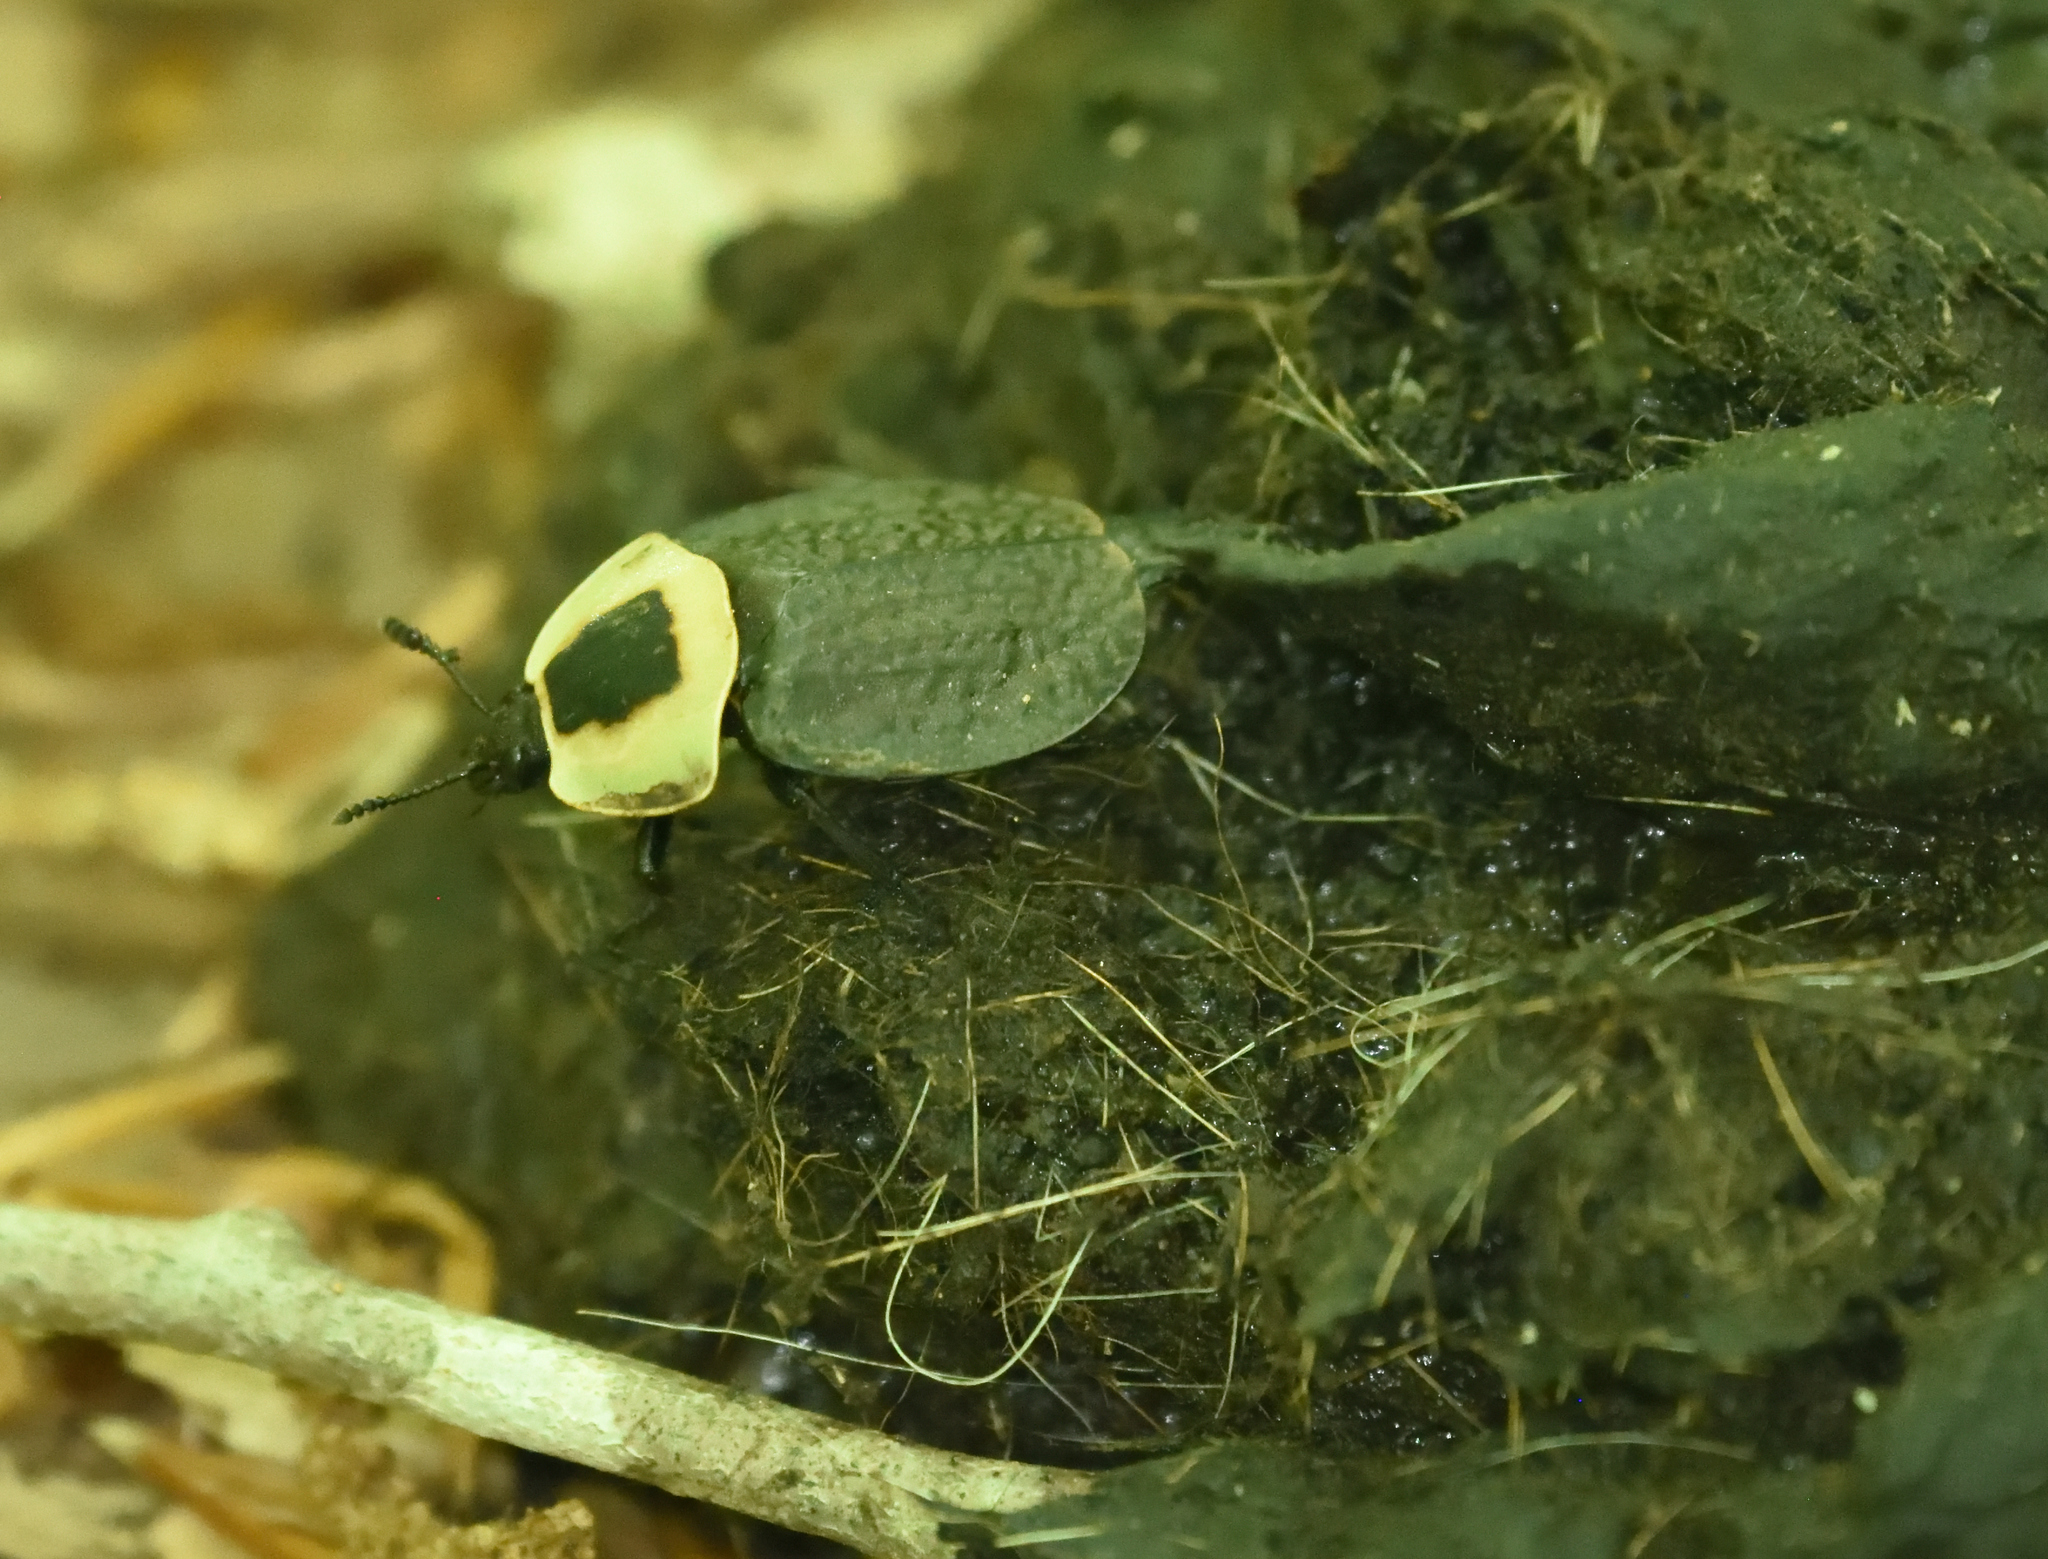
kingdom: Animalia
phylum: Arthropoda
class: Insecta
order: Coleoptera
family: Staphylinidae
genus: Necrophila
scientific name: Necrophila americana
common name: American carrion beetle
